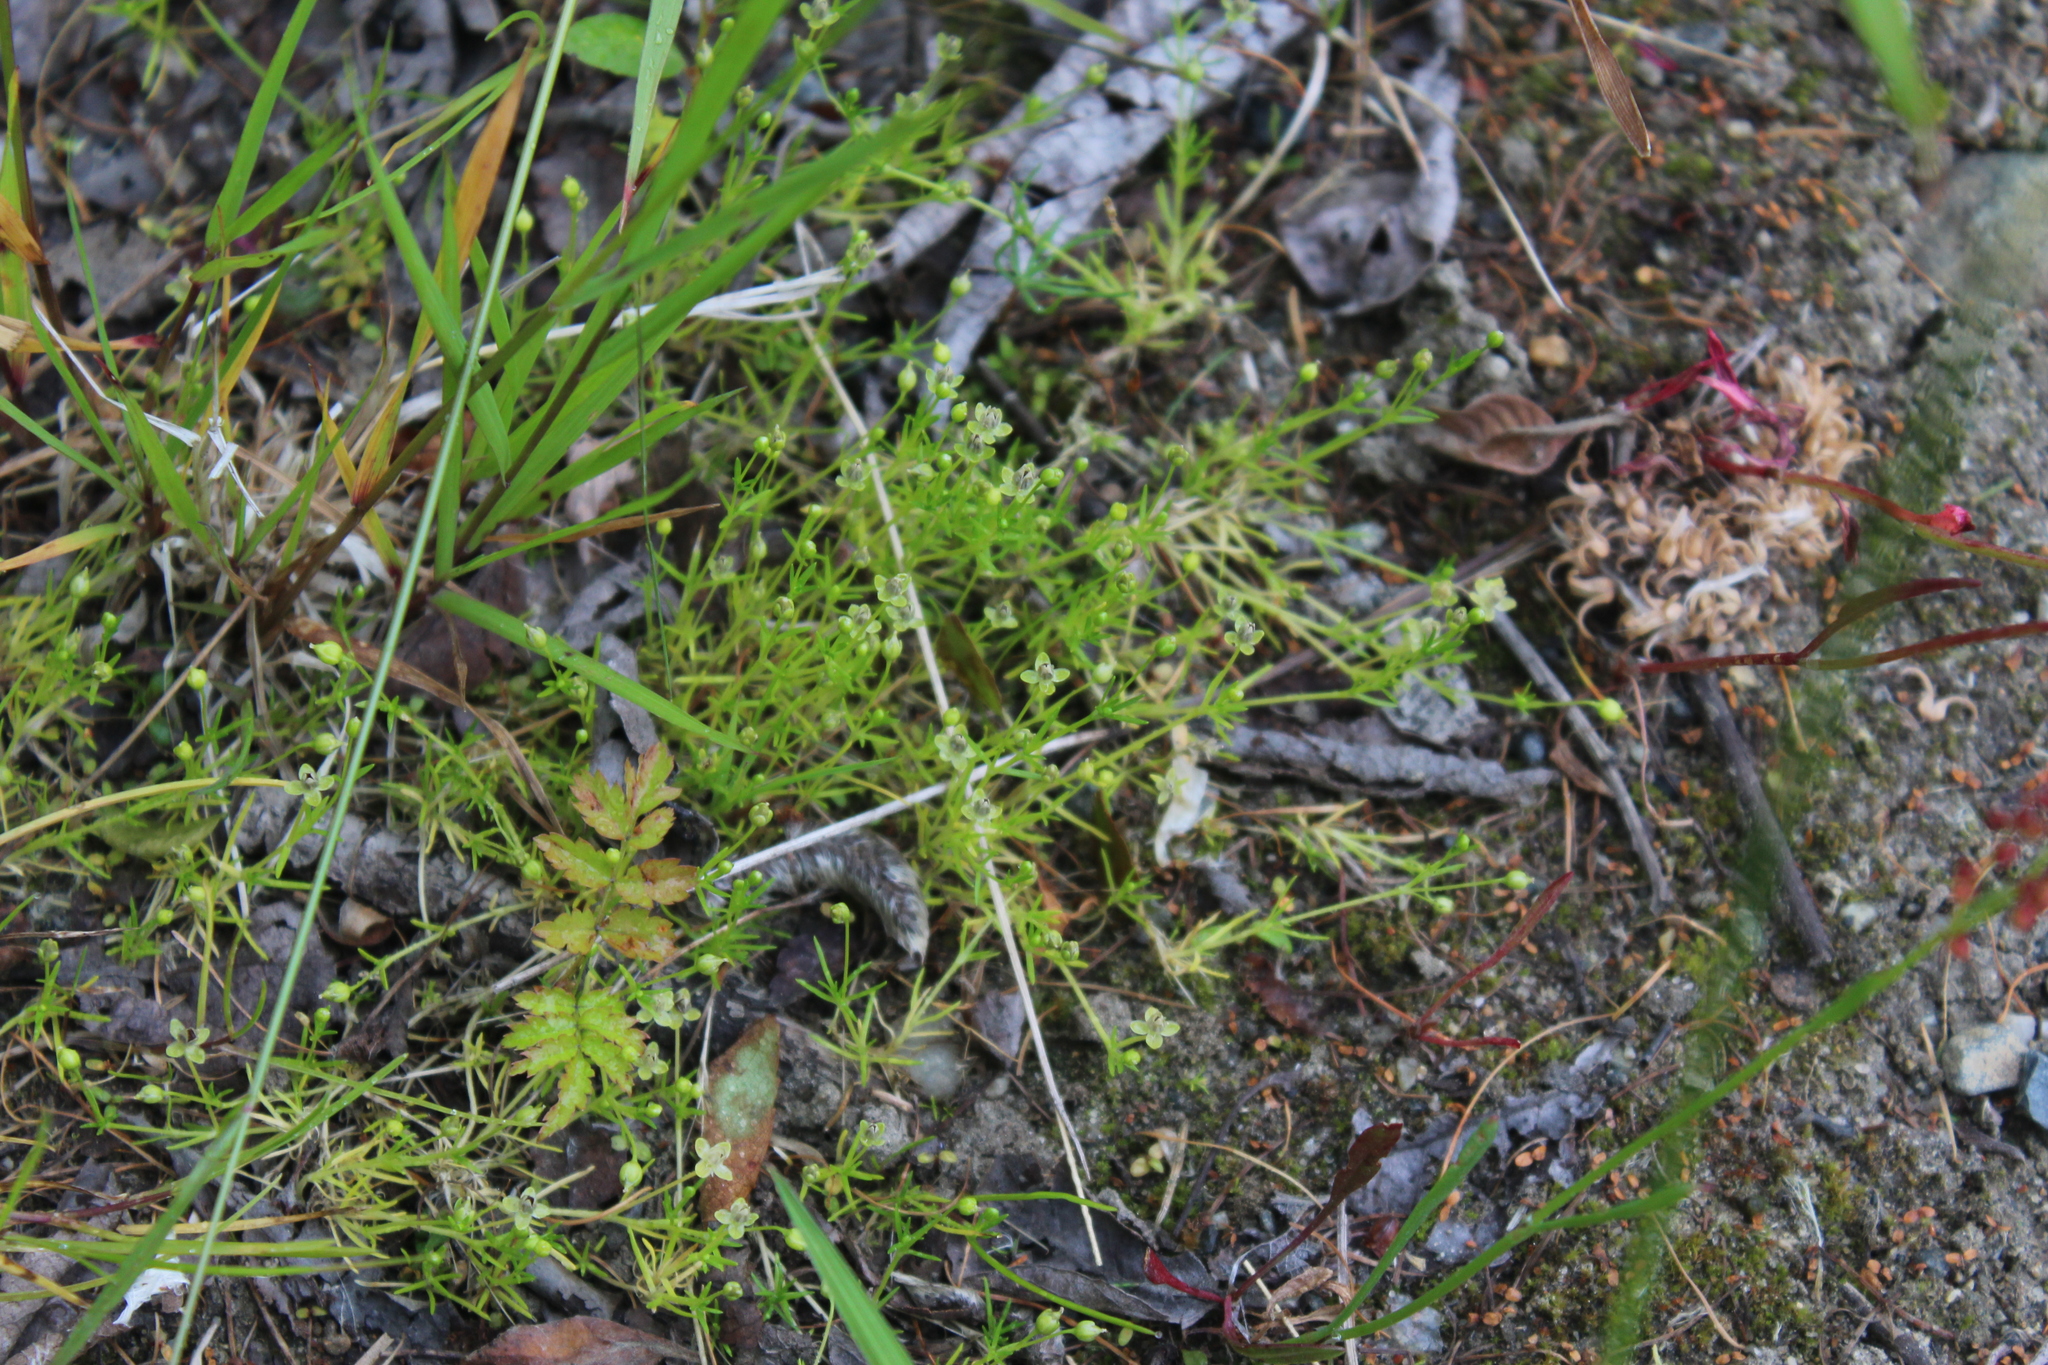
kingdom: Plantae
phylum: Tracheophyta
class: Magnoliopsida
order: Caryophyllales
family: Caryophyllaceae
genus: Sagina
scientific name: Sagina procumbens
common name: Procumbent pearlwort
